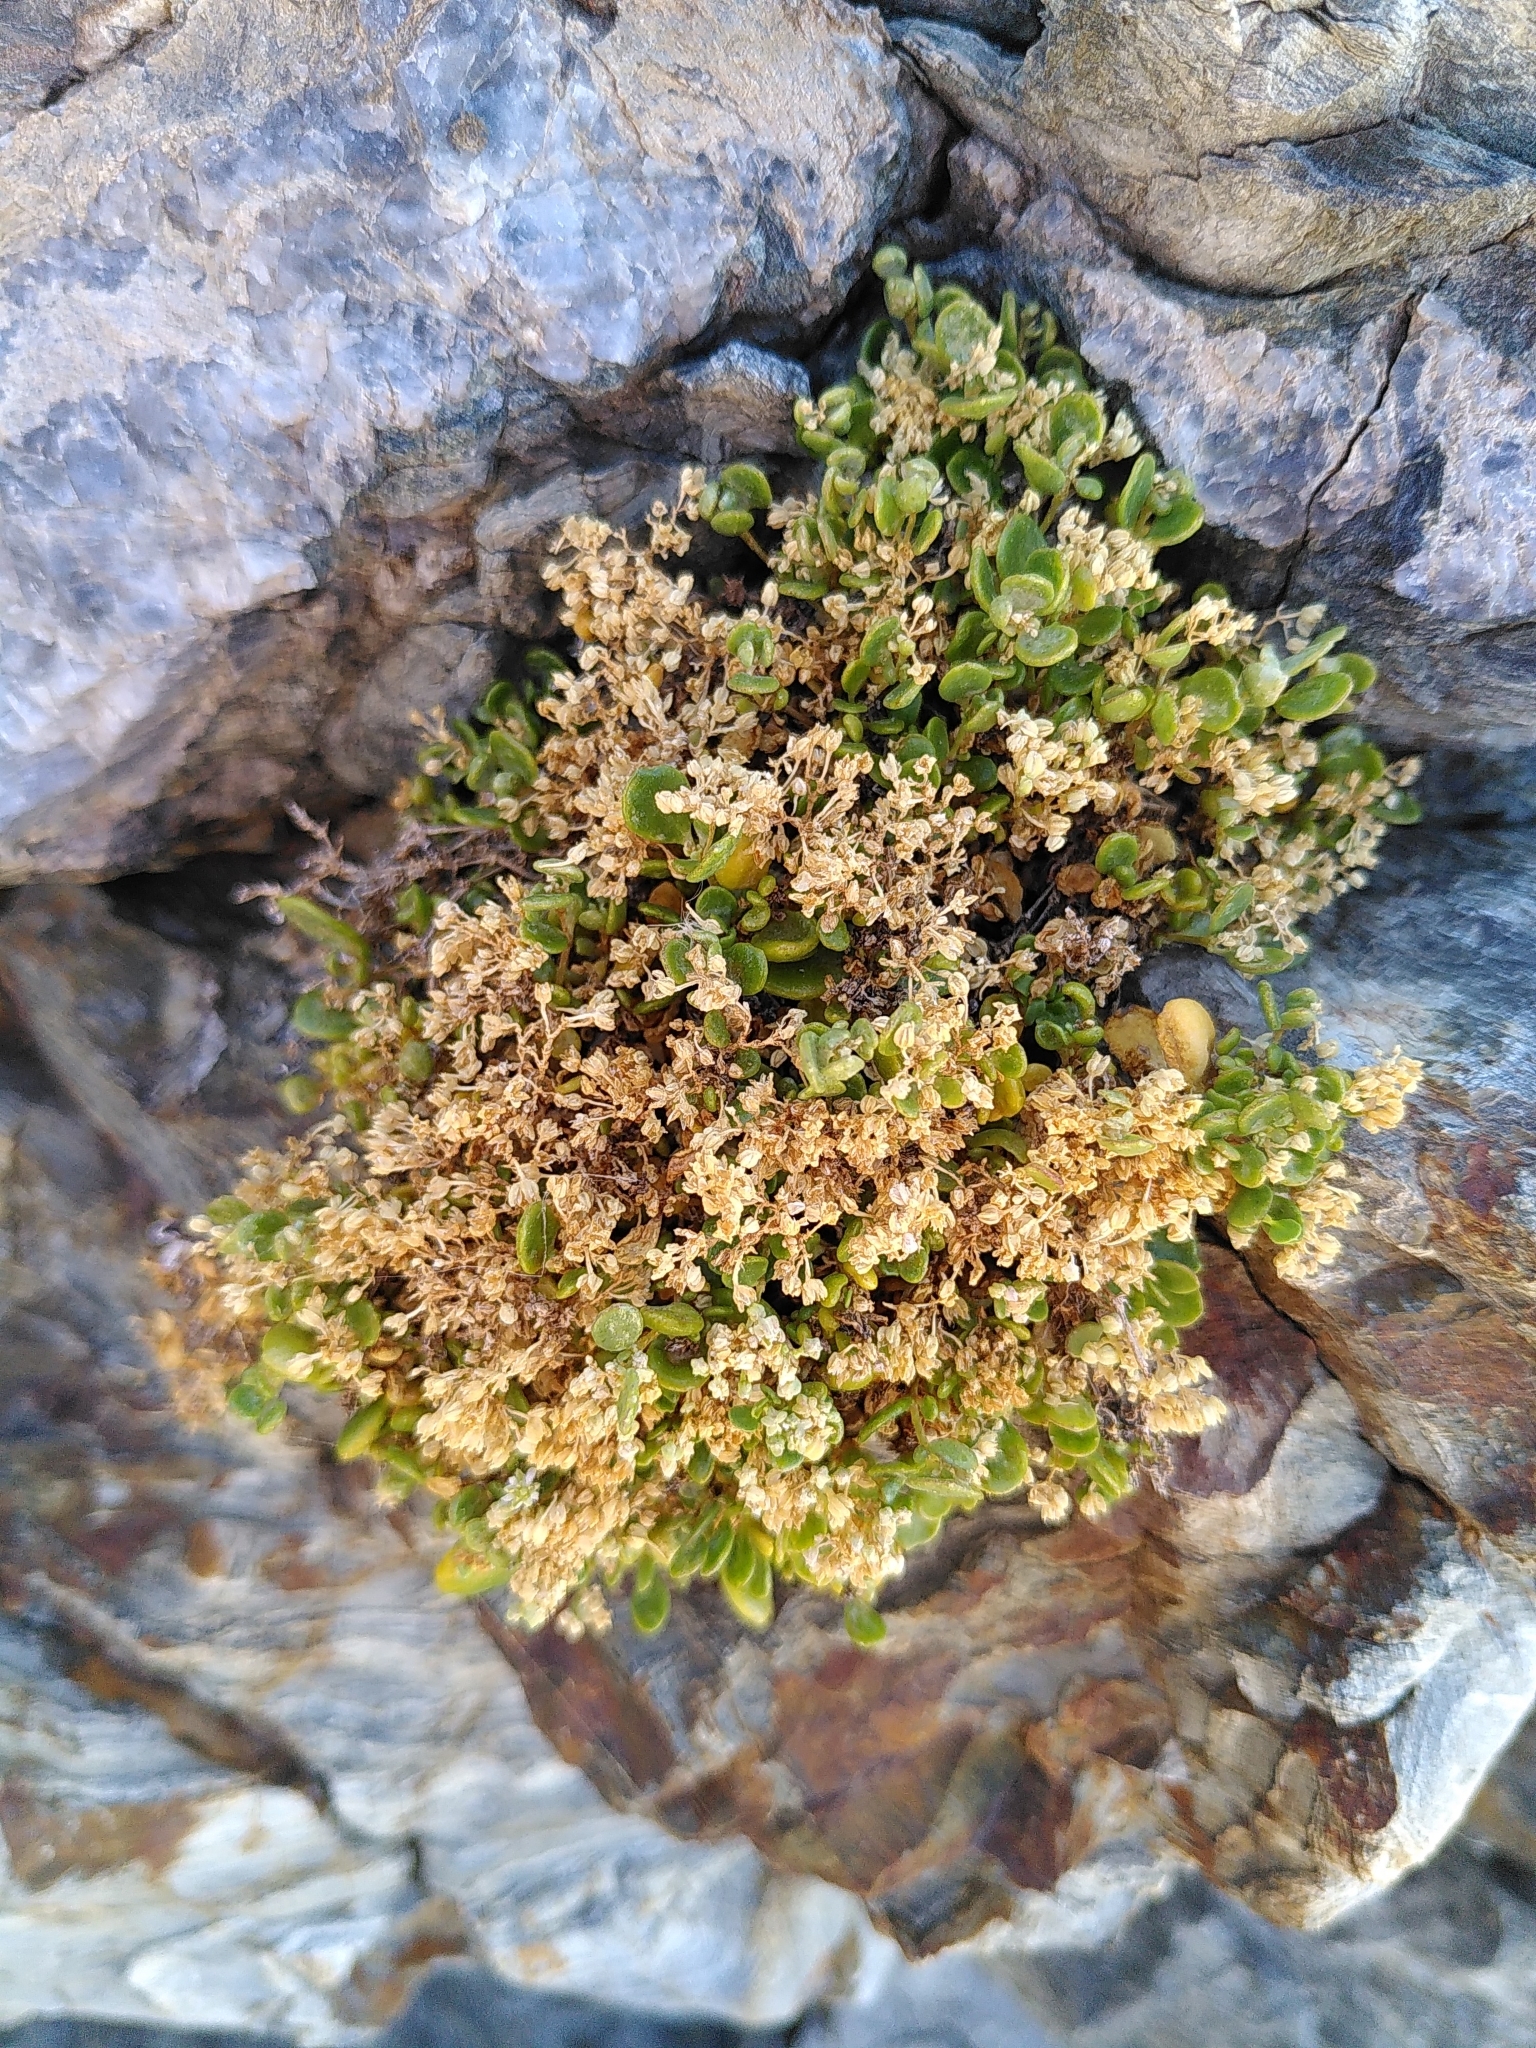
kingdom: Plantae
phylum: Tracheophyta
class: Magnoliopsida
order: Caryophyllales
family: Caryophyllaceae
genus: Polycarpon
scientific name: Polycarpon polycarpoides
